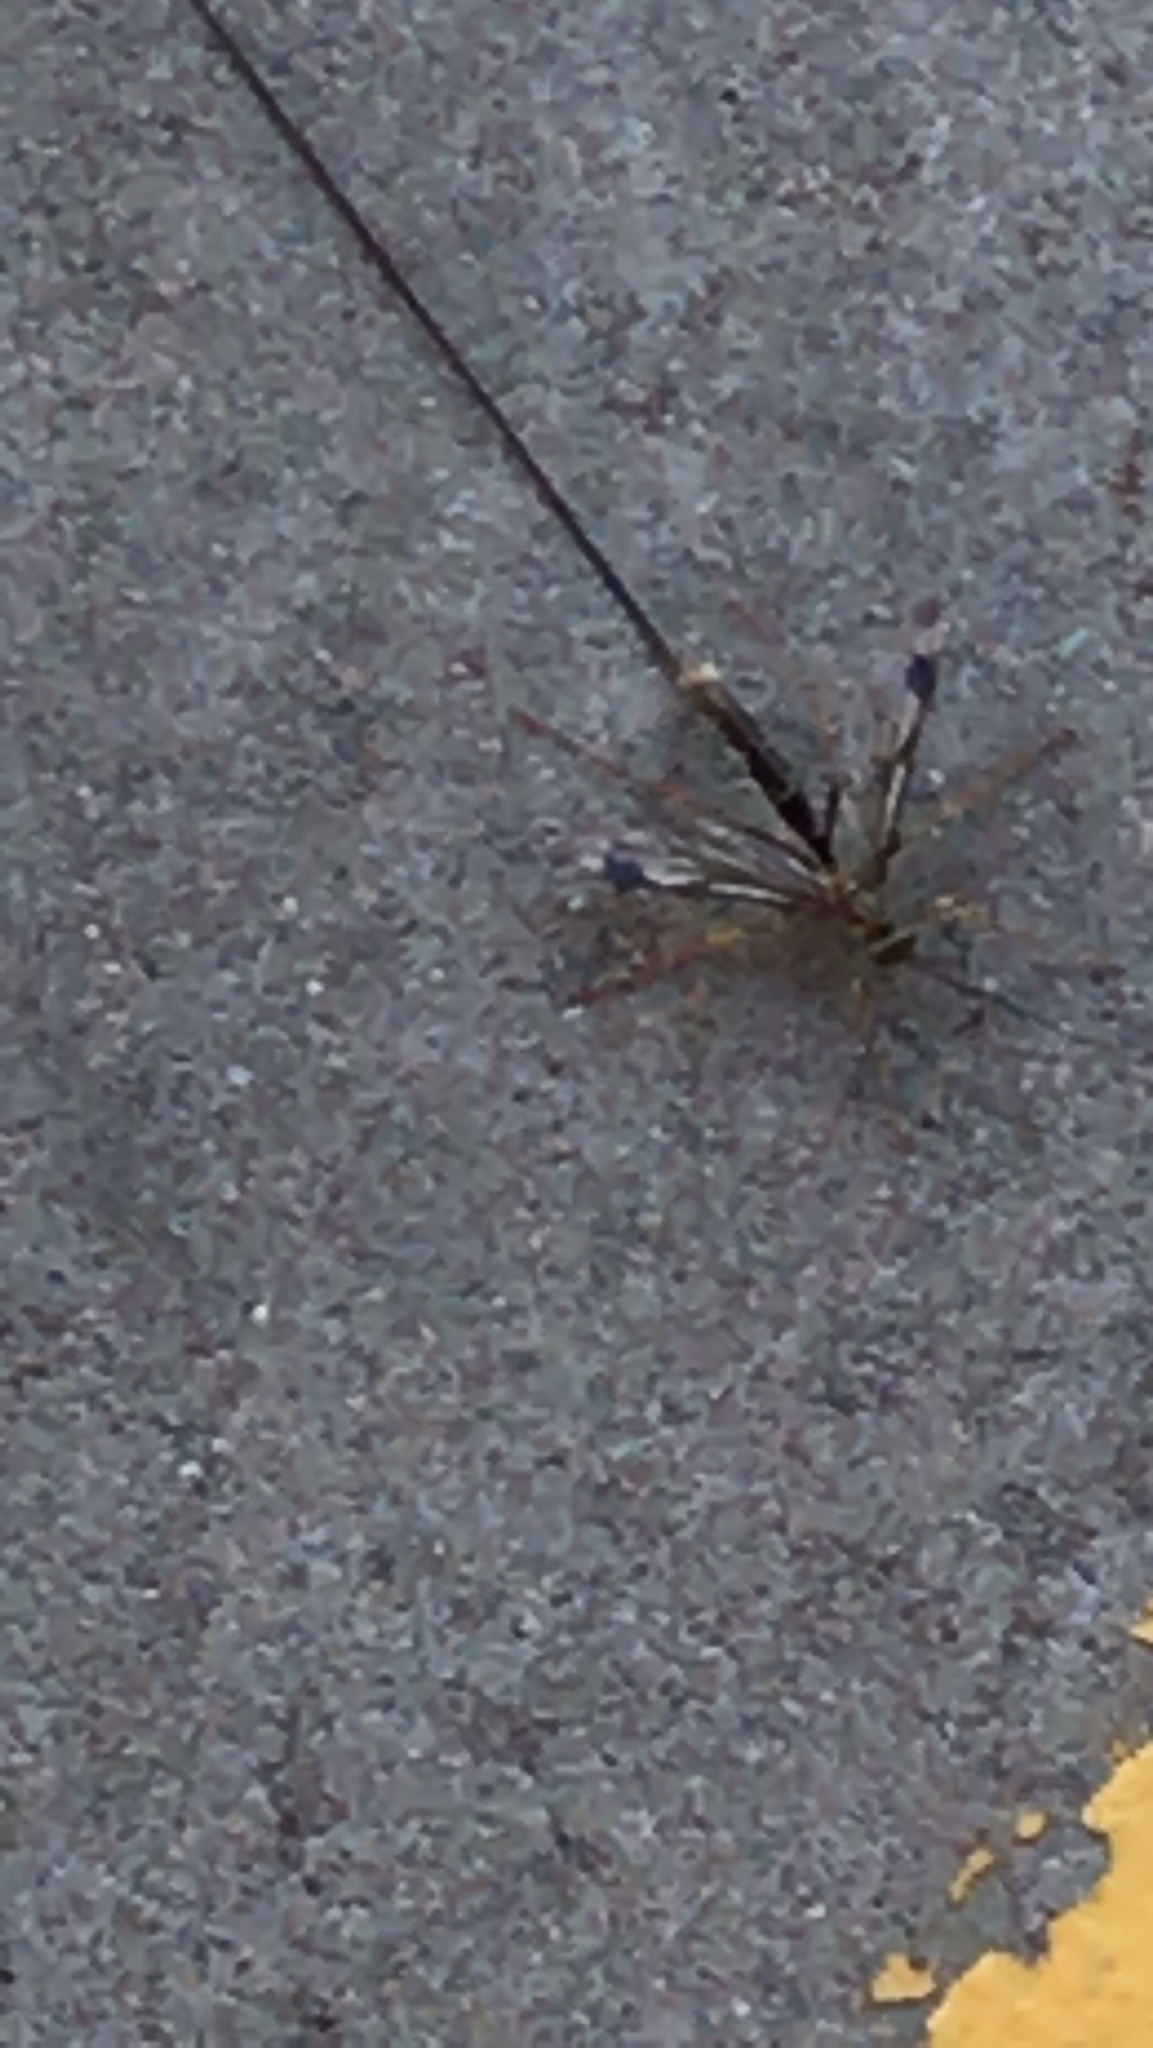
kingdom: Animalia
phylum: Arthropoda
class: Insecta
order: Hymenoptera
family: Ichneumonidae
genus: Megarhyssa
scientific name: Megarhyssa macrura
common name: Long-tailed giant ichneumonid wasp
